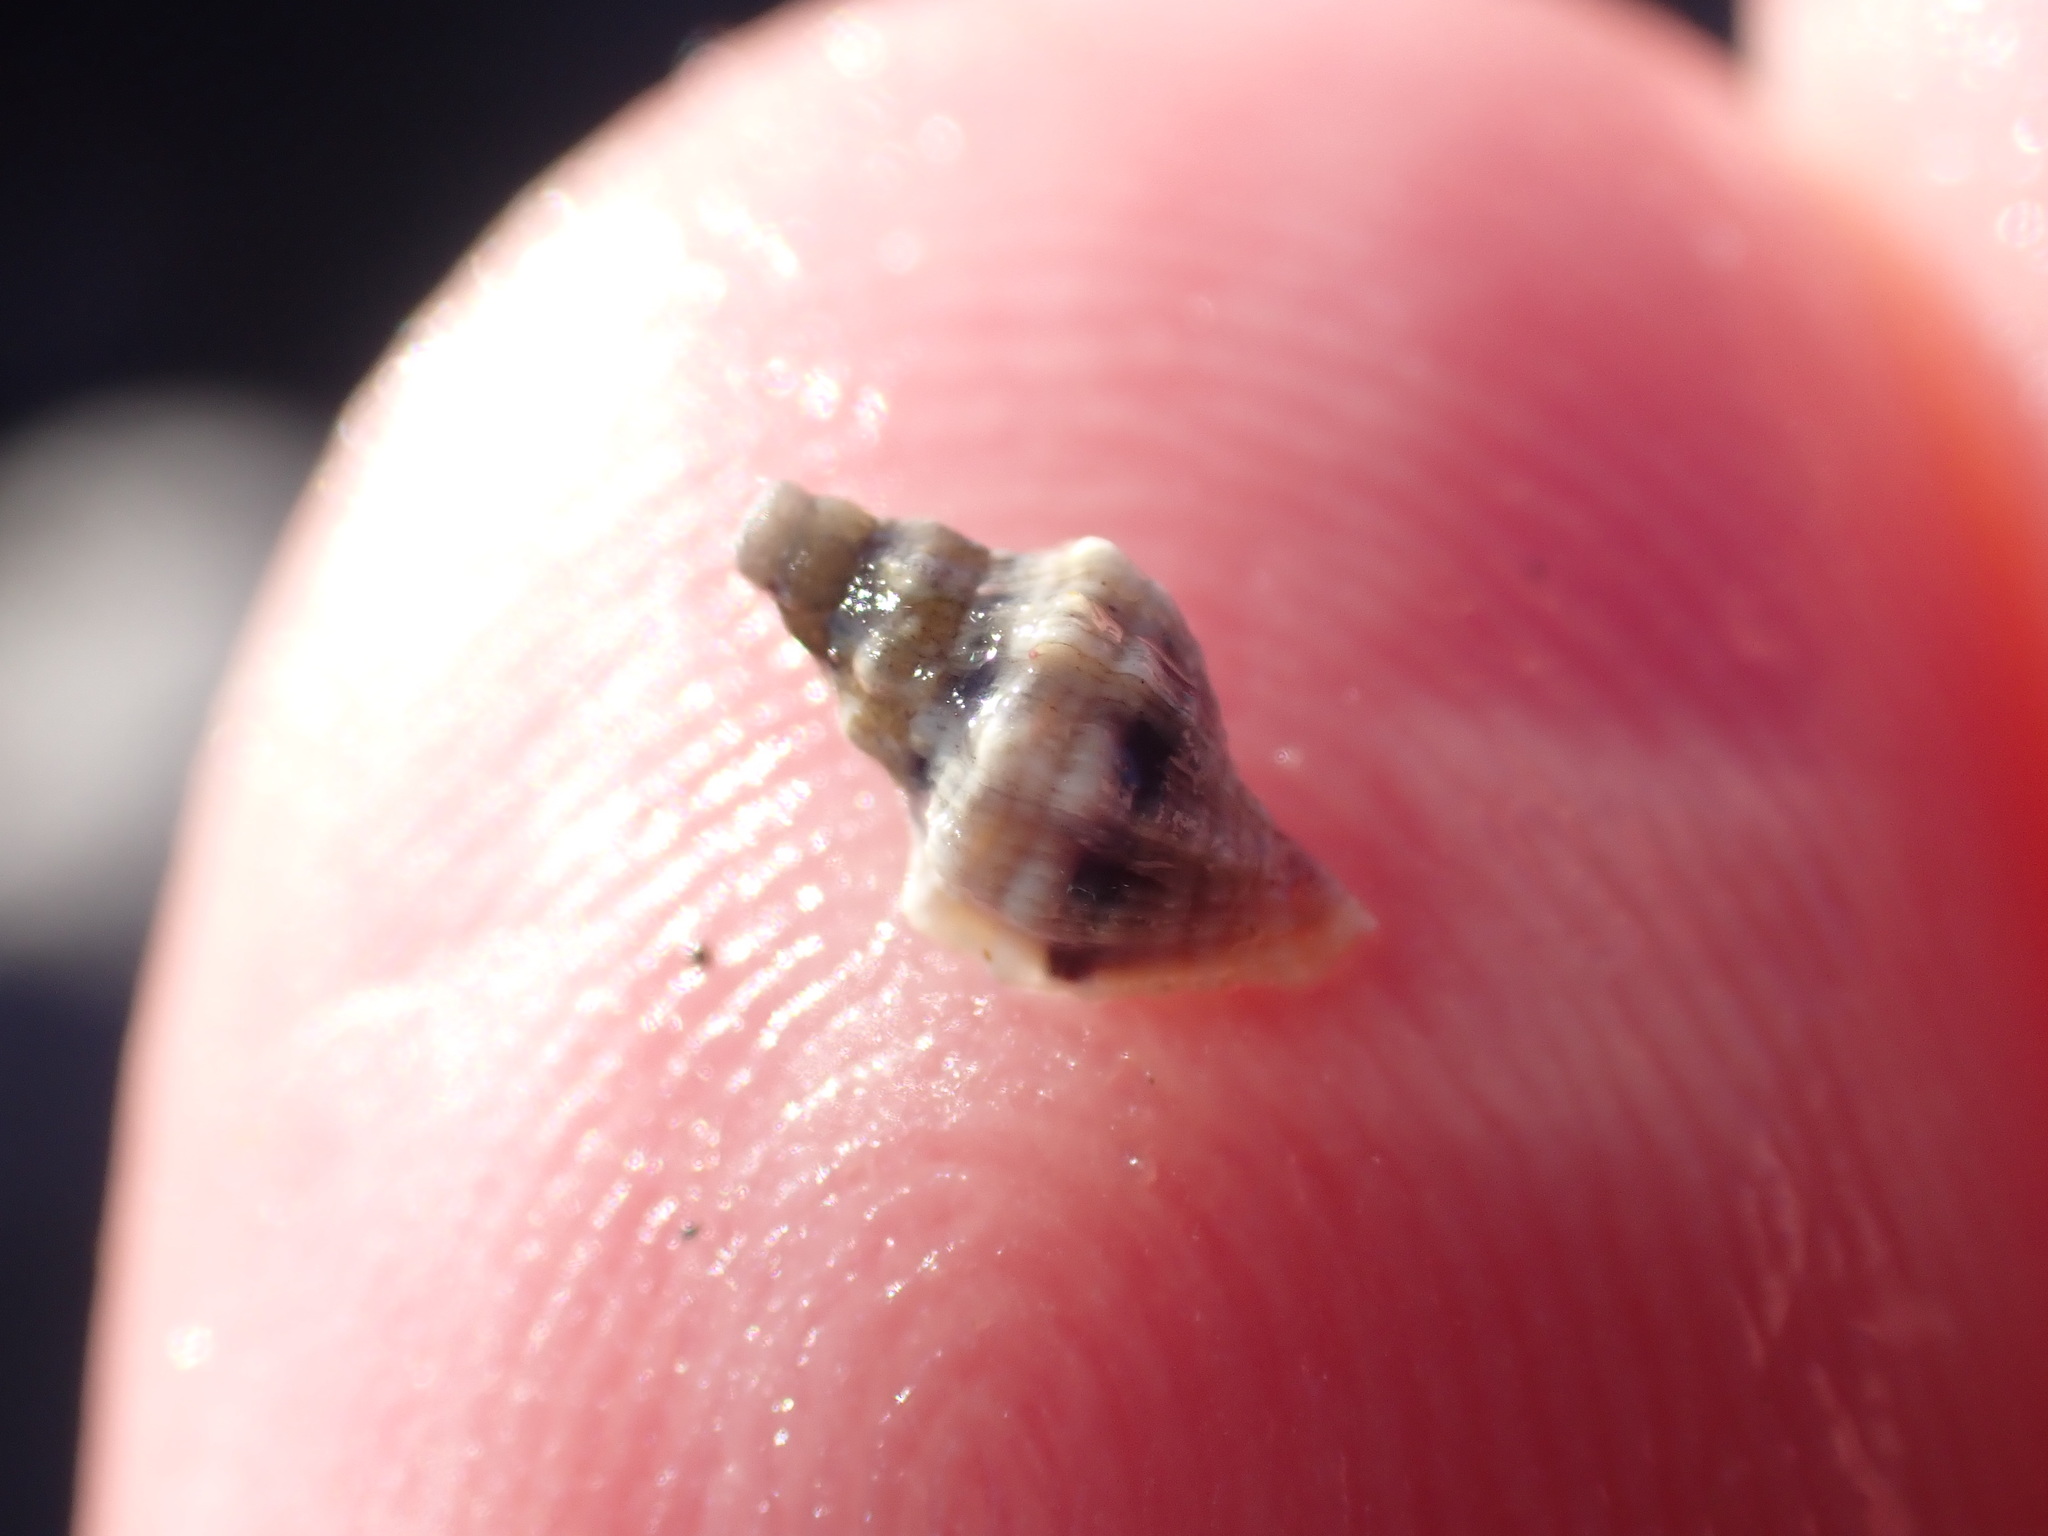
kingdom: Animalia
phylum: Mollusca
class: Gastropoda
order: Neogastropoda
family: Muricidae
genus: Haustrum
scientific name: Haustrum
